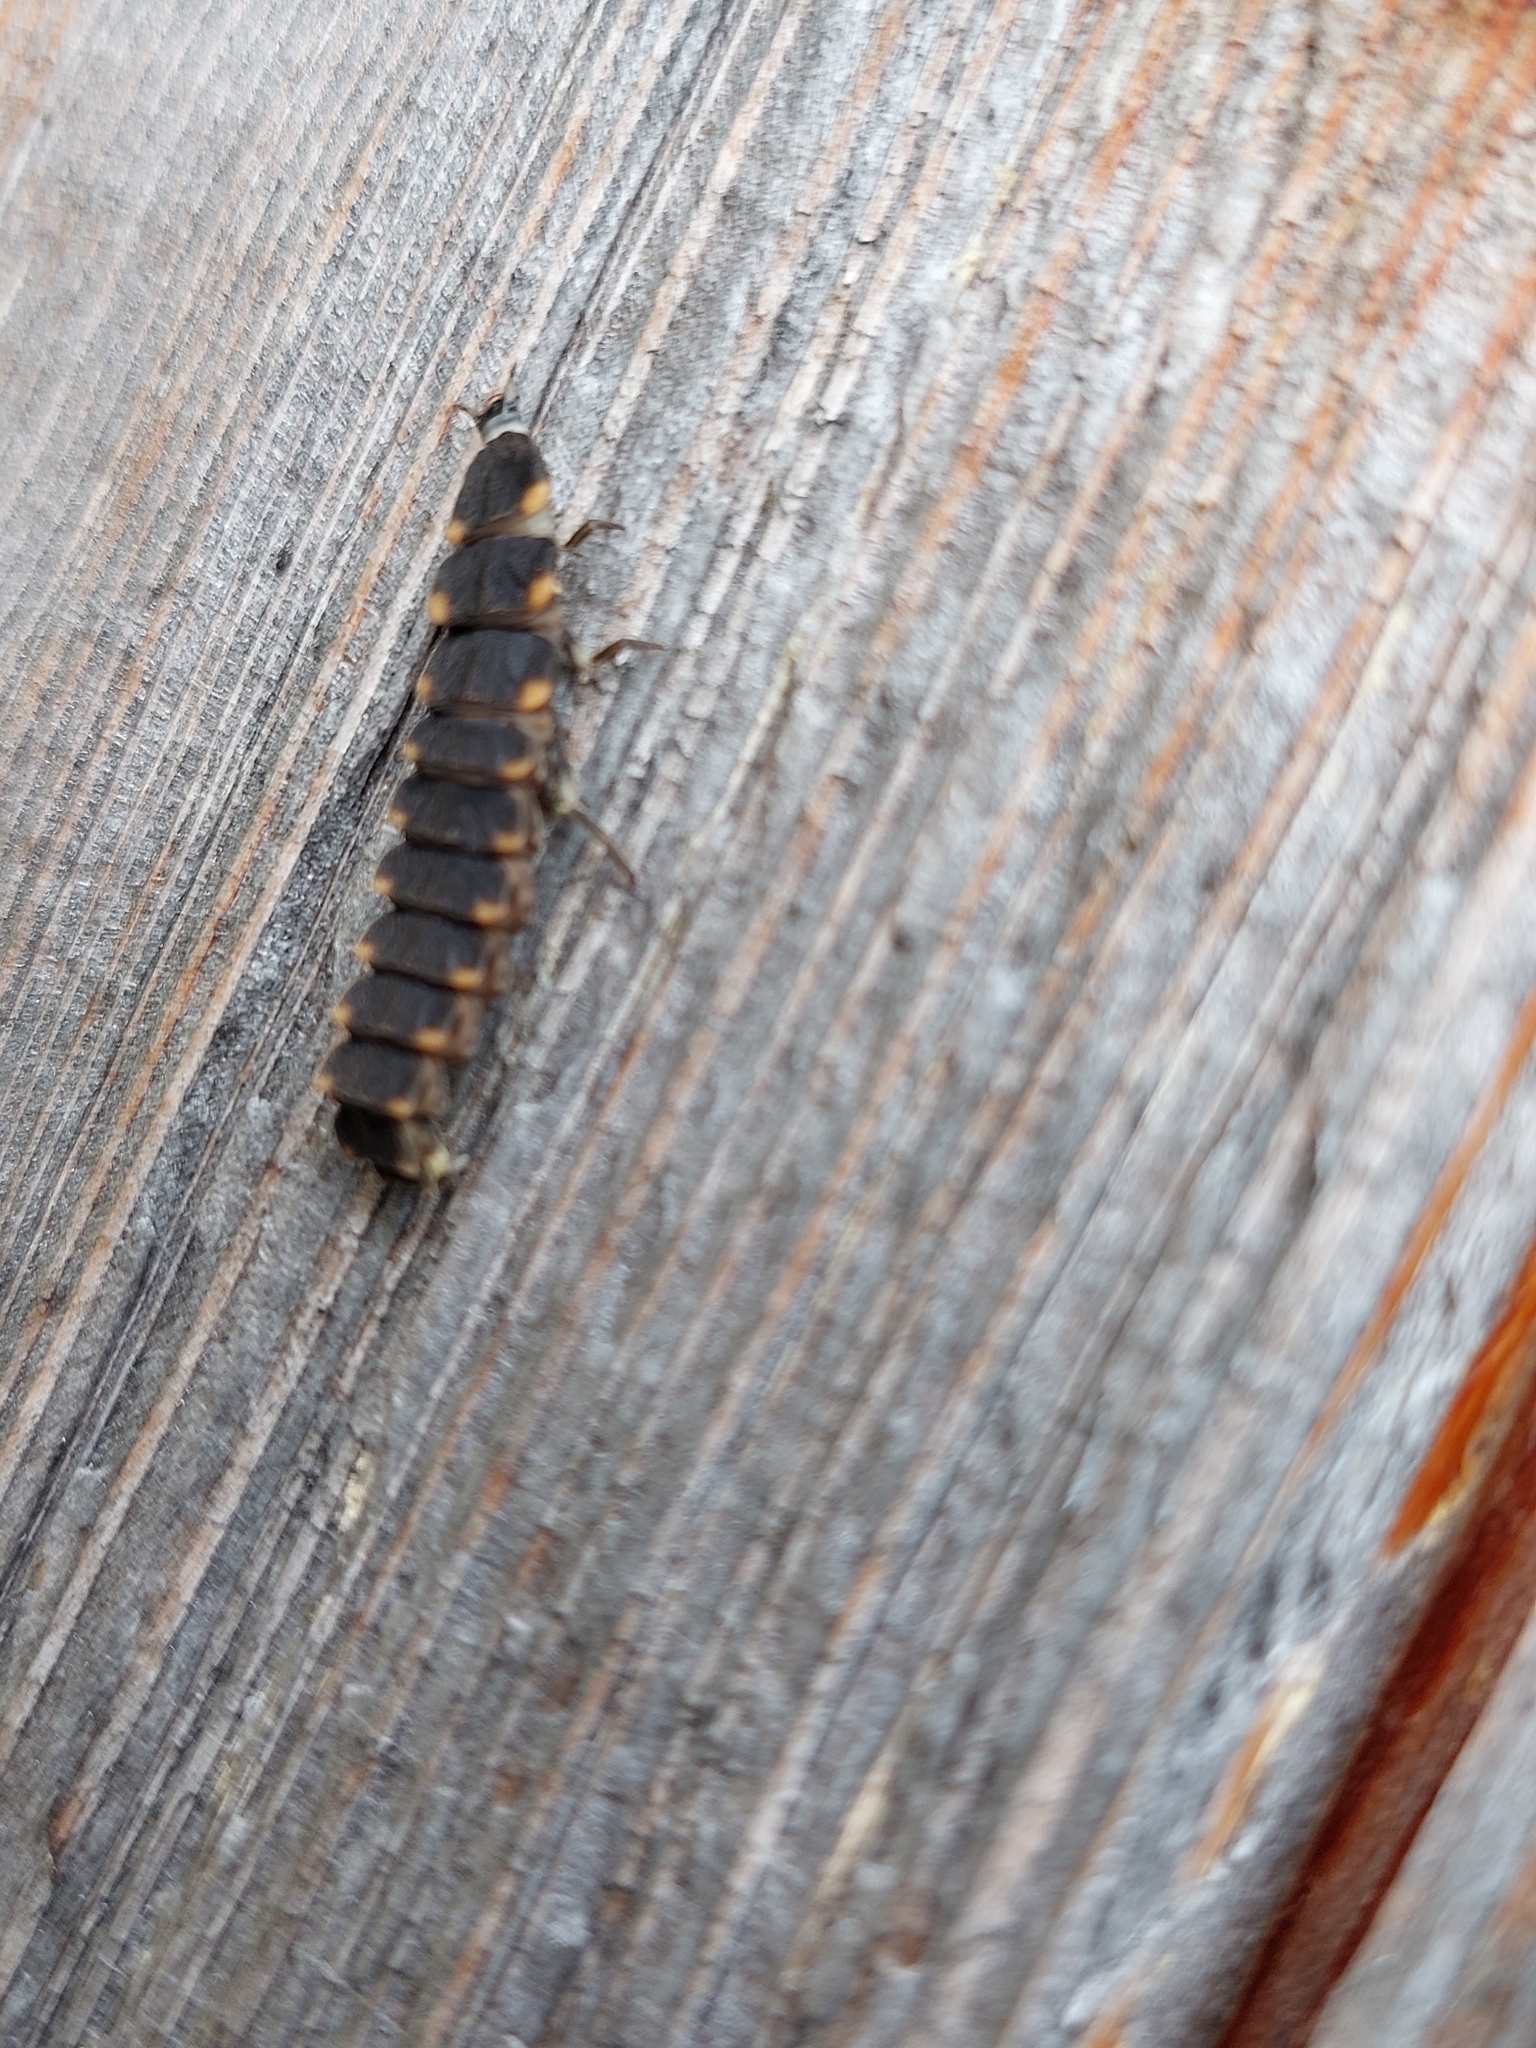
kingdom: Animalia
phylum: Arthropoda
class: Insecta
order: Coleoptera
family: Lampyridae
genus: Lampyris
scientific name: Lampyris noctiluca
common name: Glow-worm
